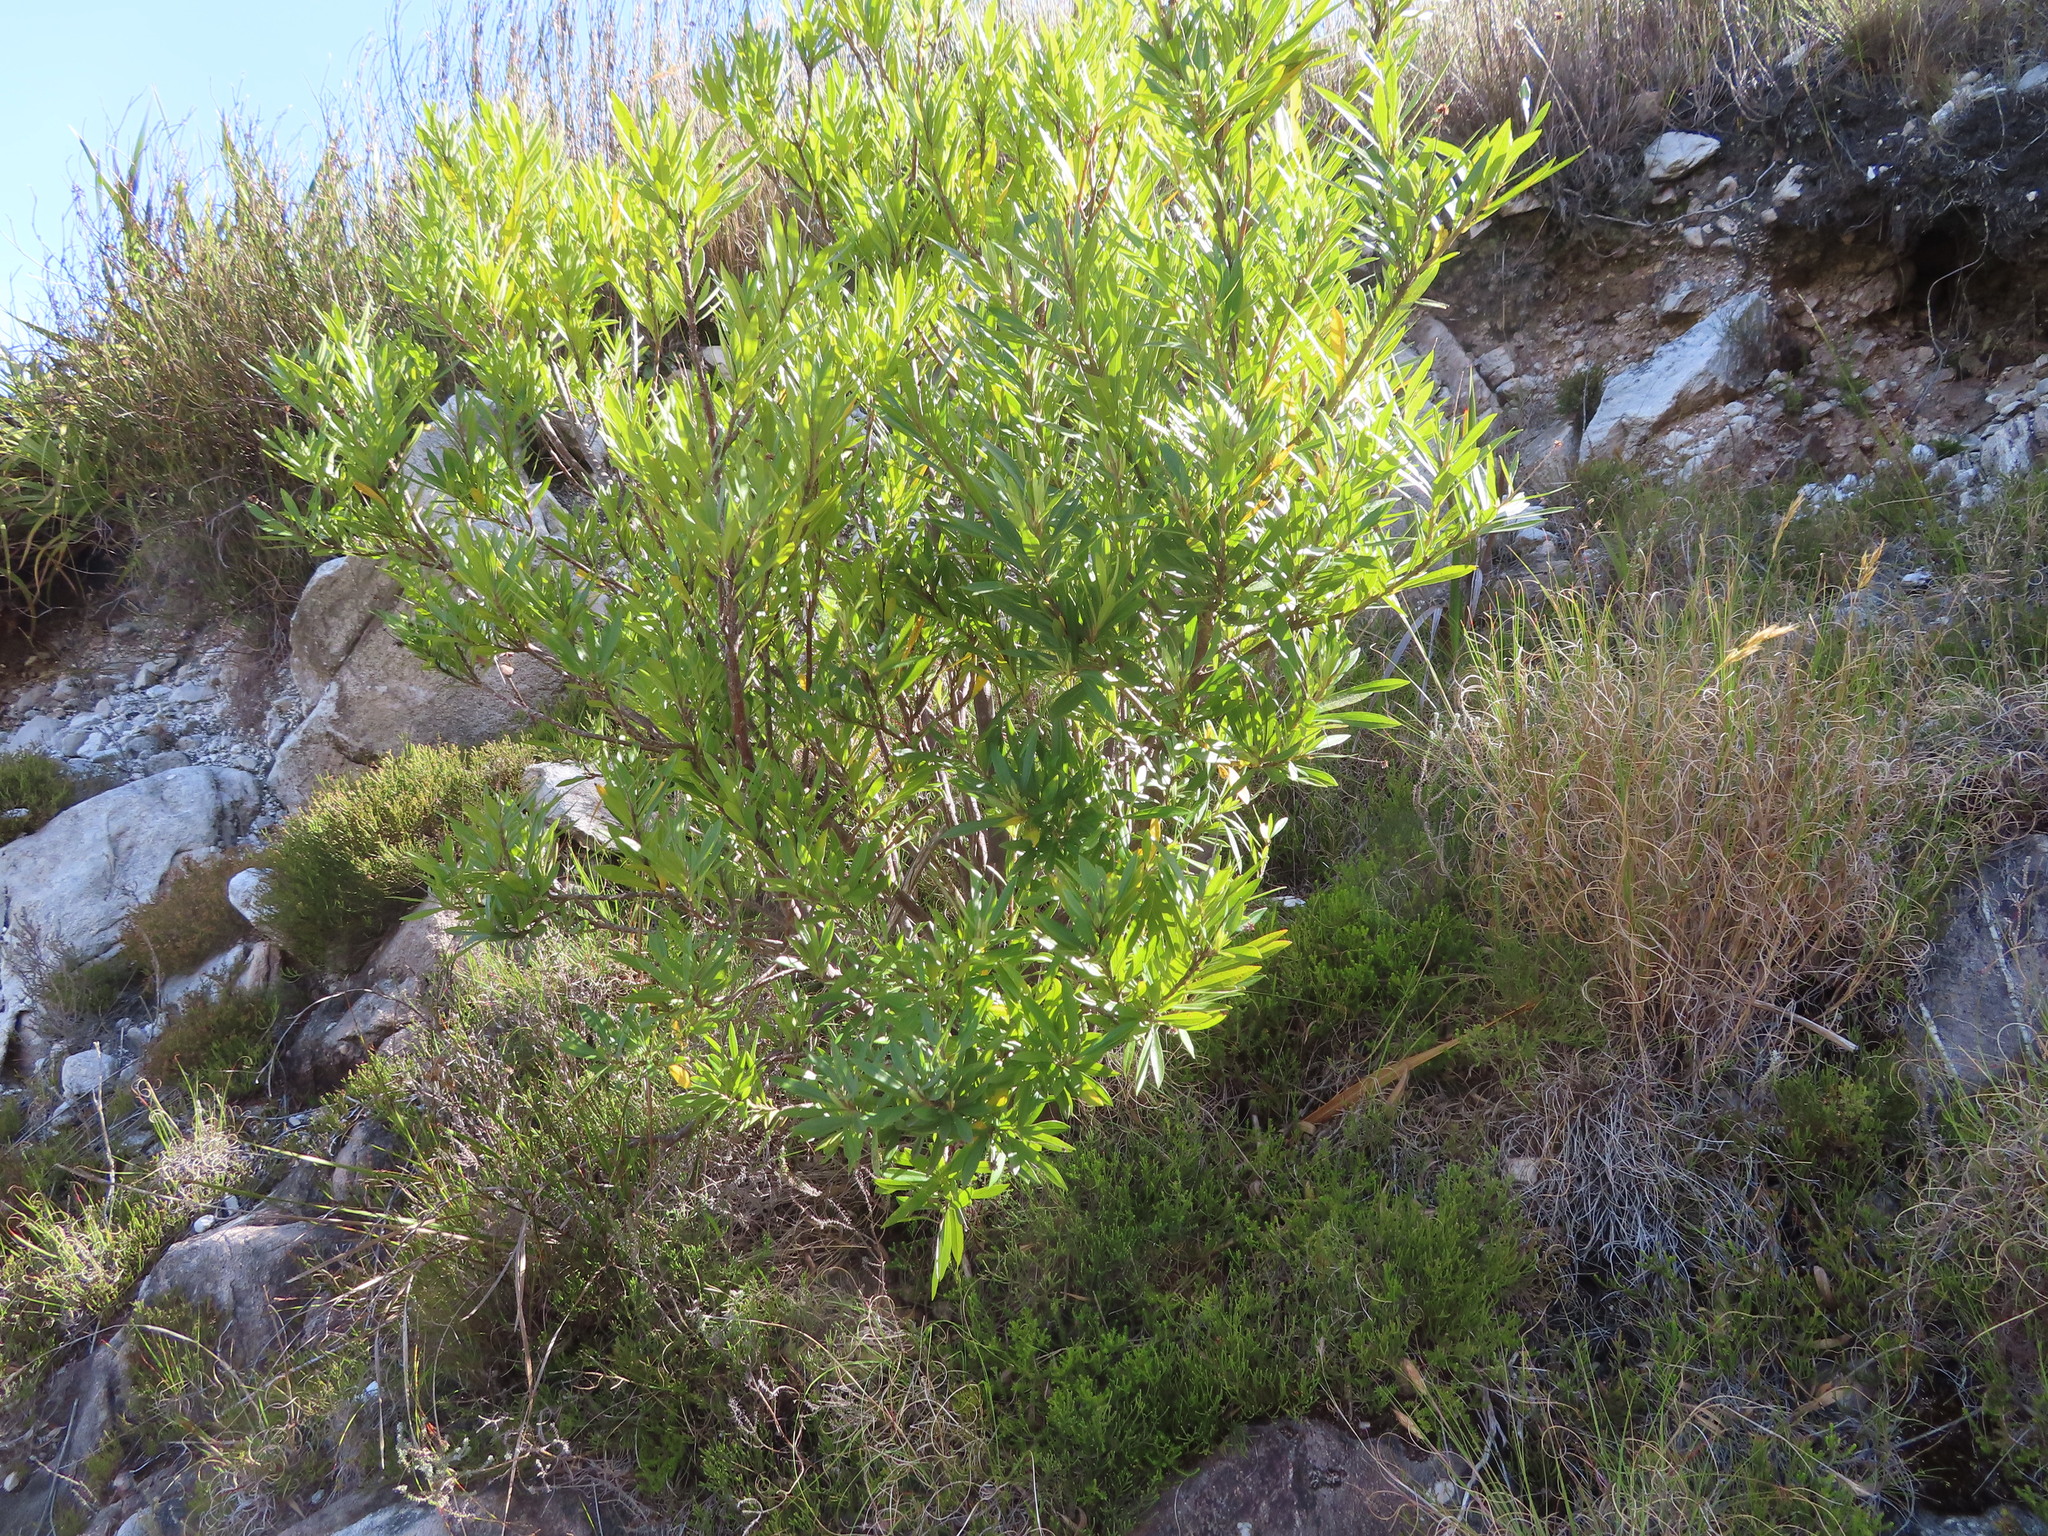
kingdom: Plantae
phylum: Tracheophyta
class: Magnoliopsida
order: Asterales
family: Asteraceae
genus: Brachylaena
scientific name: Brachylaena neriifolia
